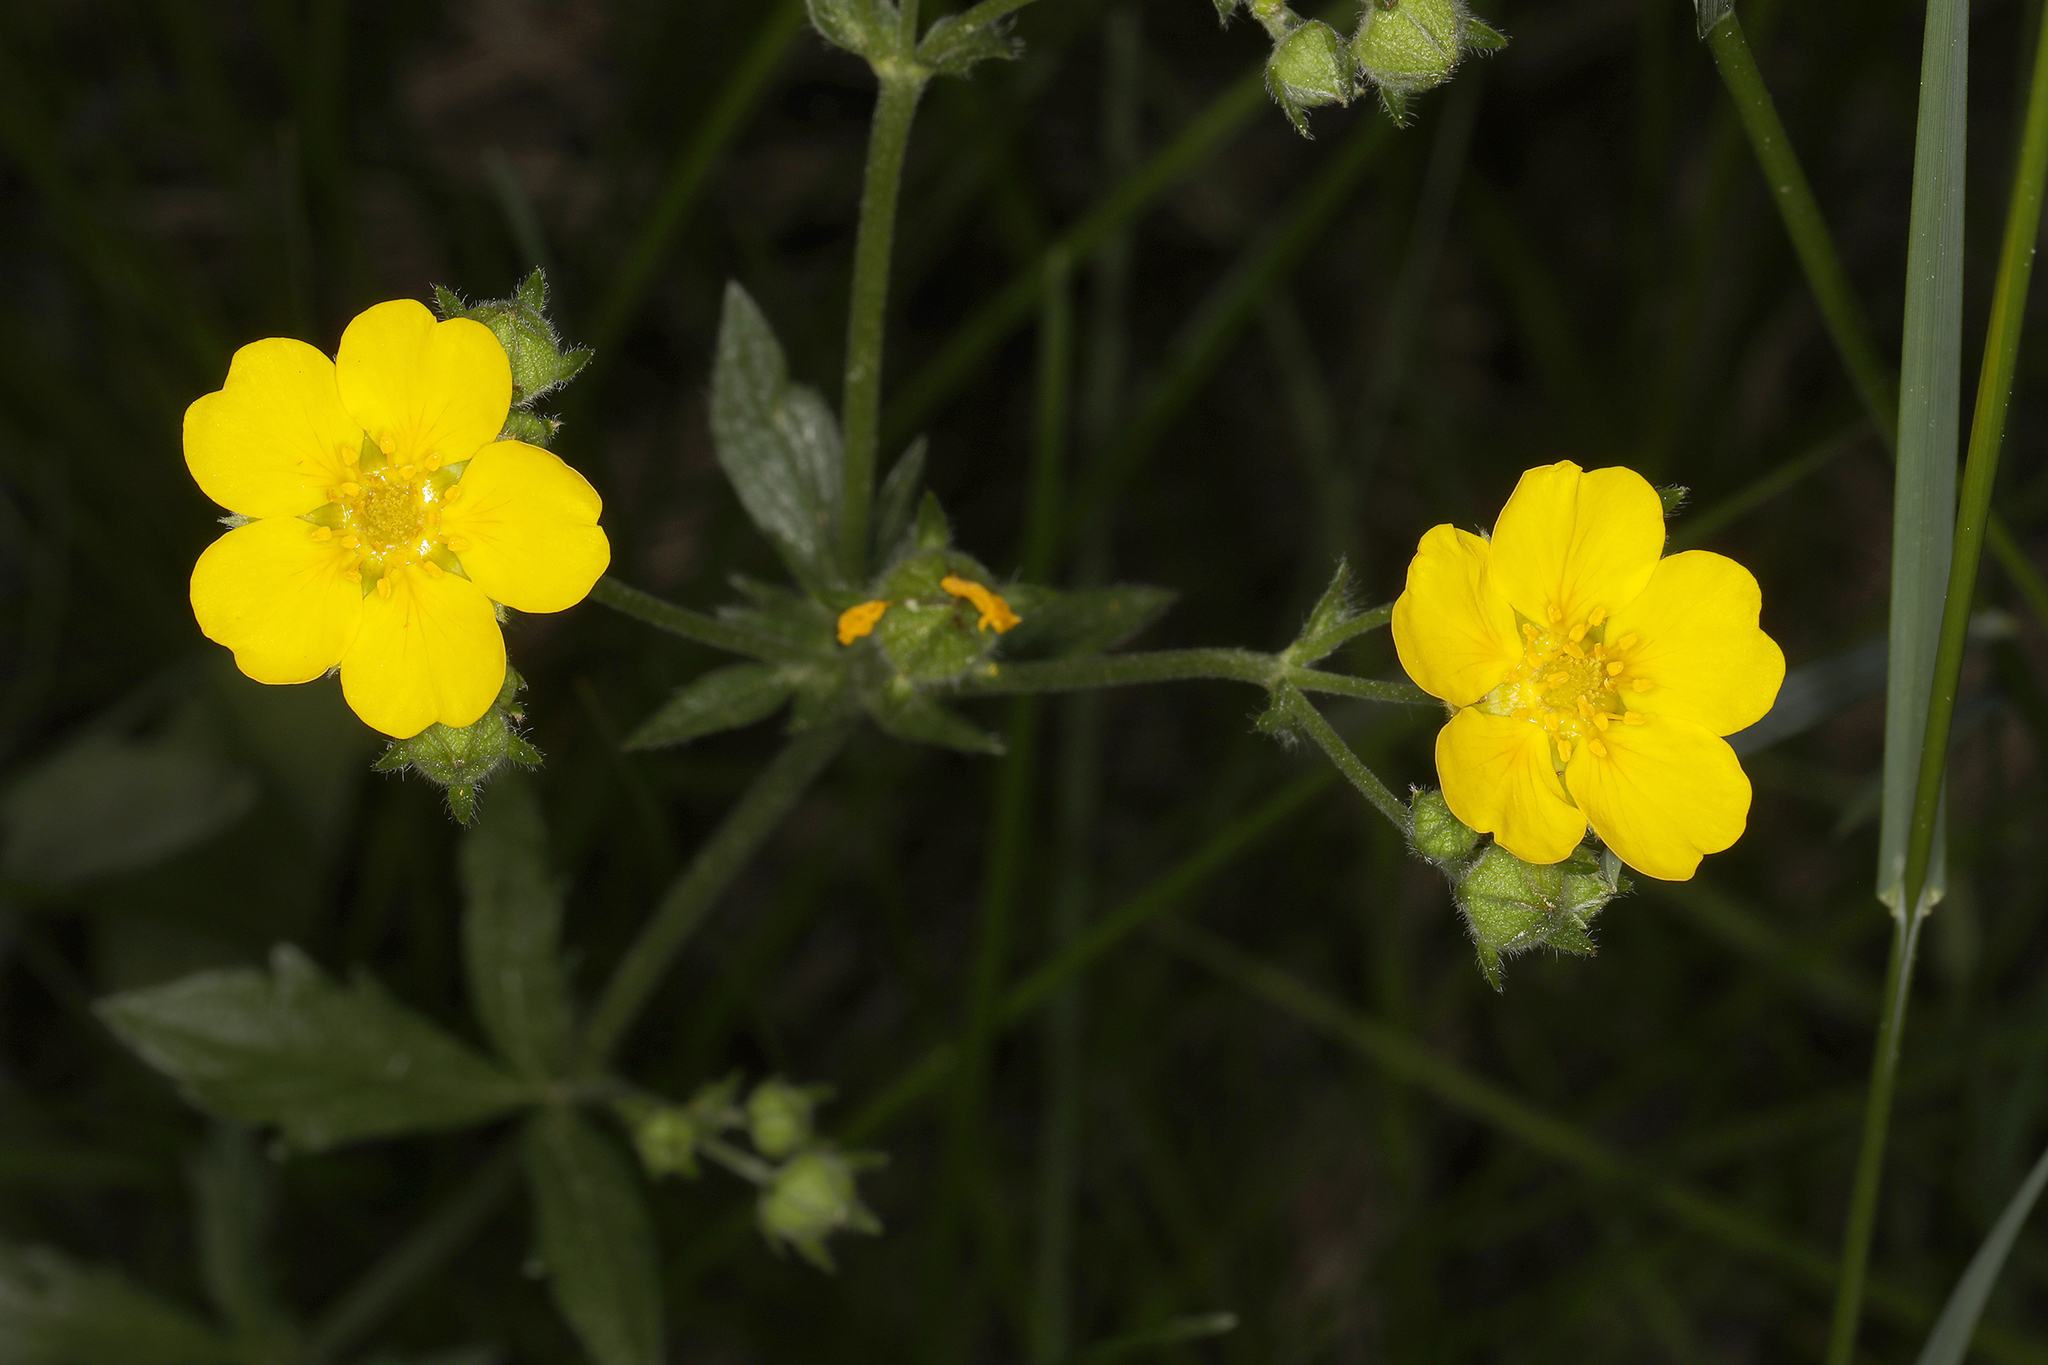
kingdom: Plantae
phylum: Tracheophyta
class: Magnoliopsida
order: Rosales
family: Rosaceae
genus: Potentilla
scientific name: Potentilla gracilis
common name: Graceful cinquefoil
